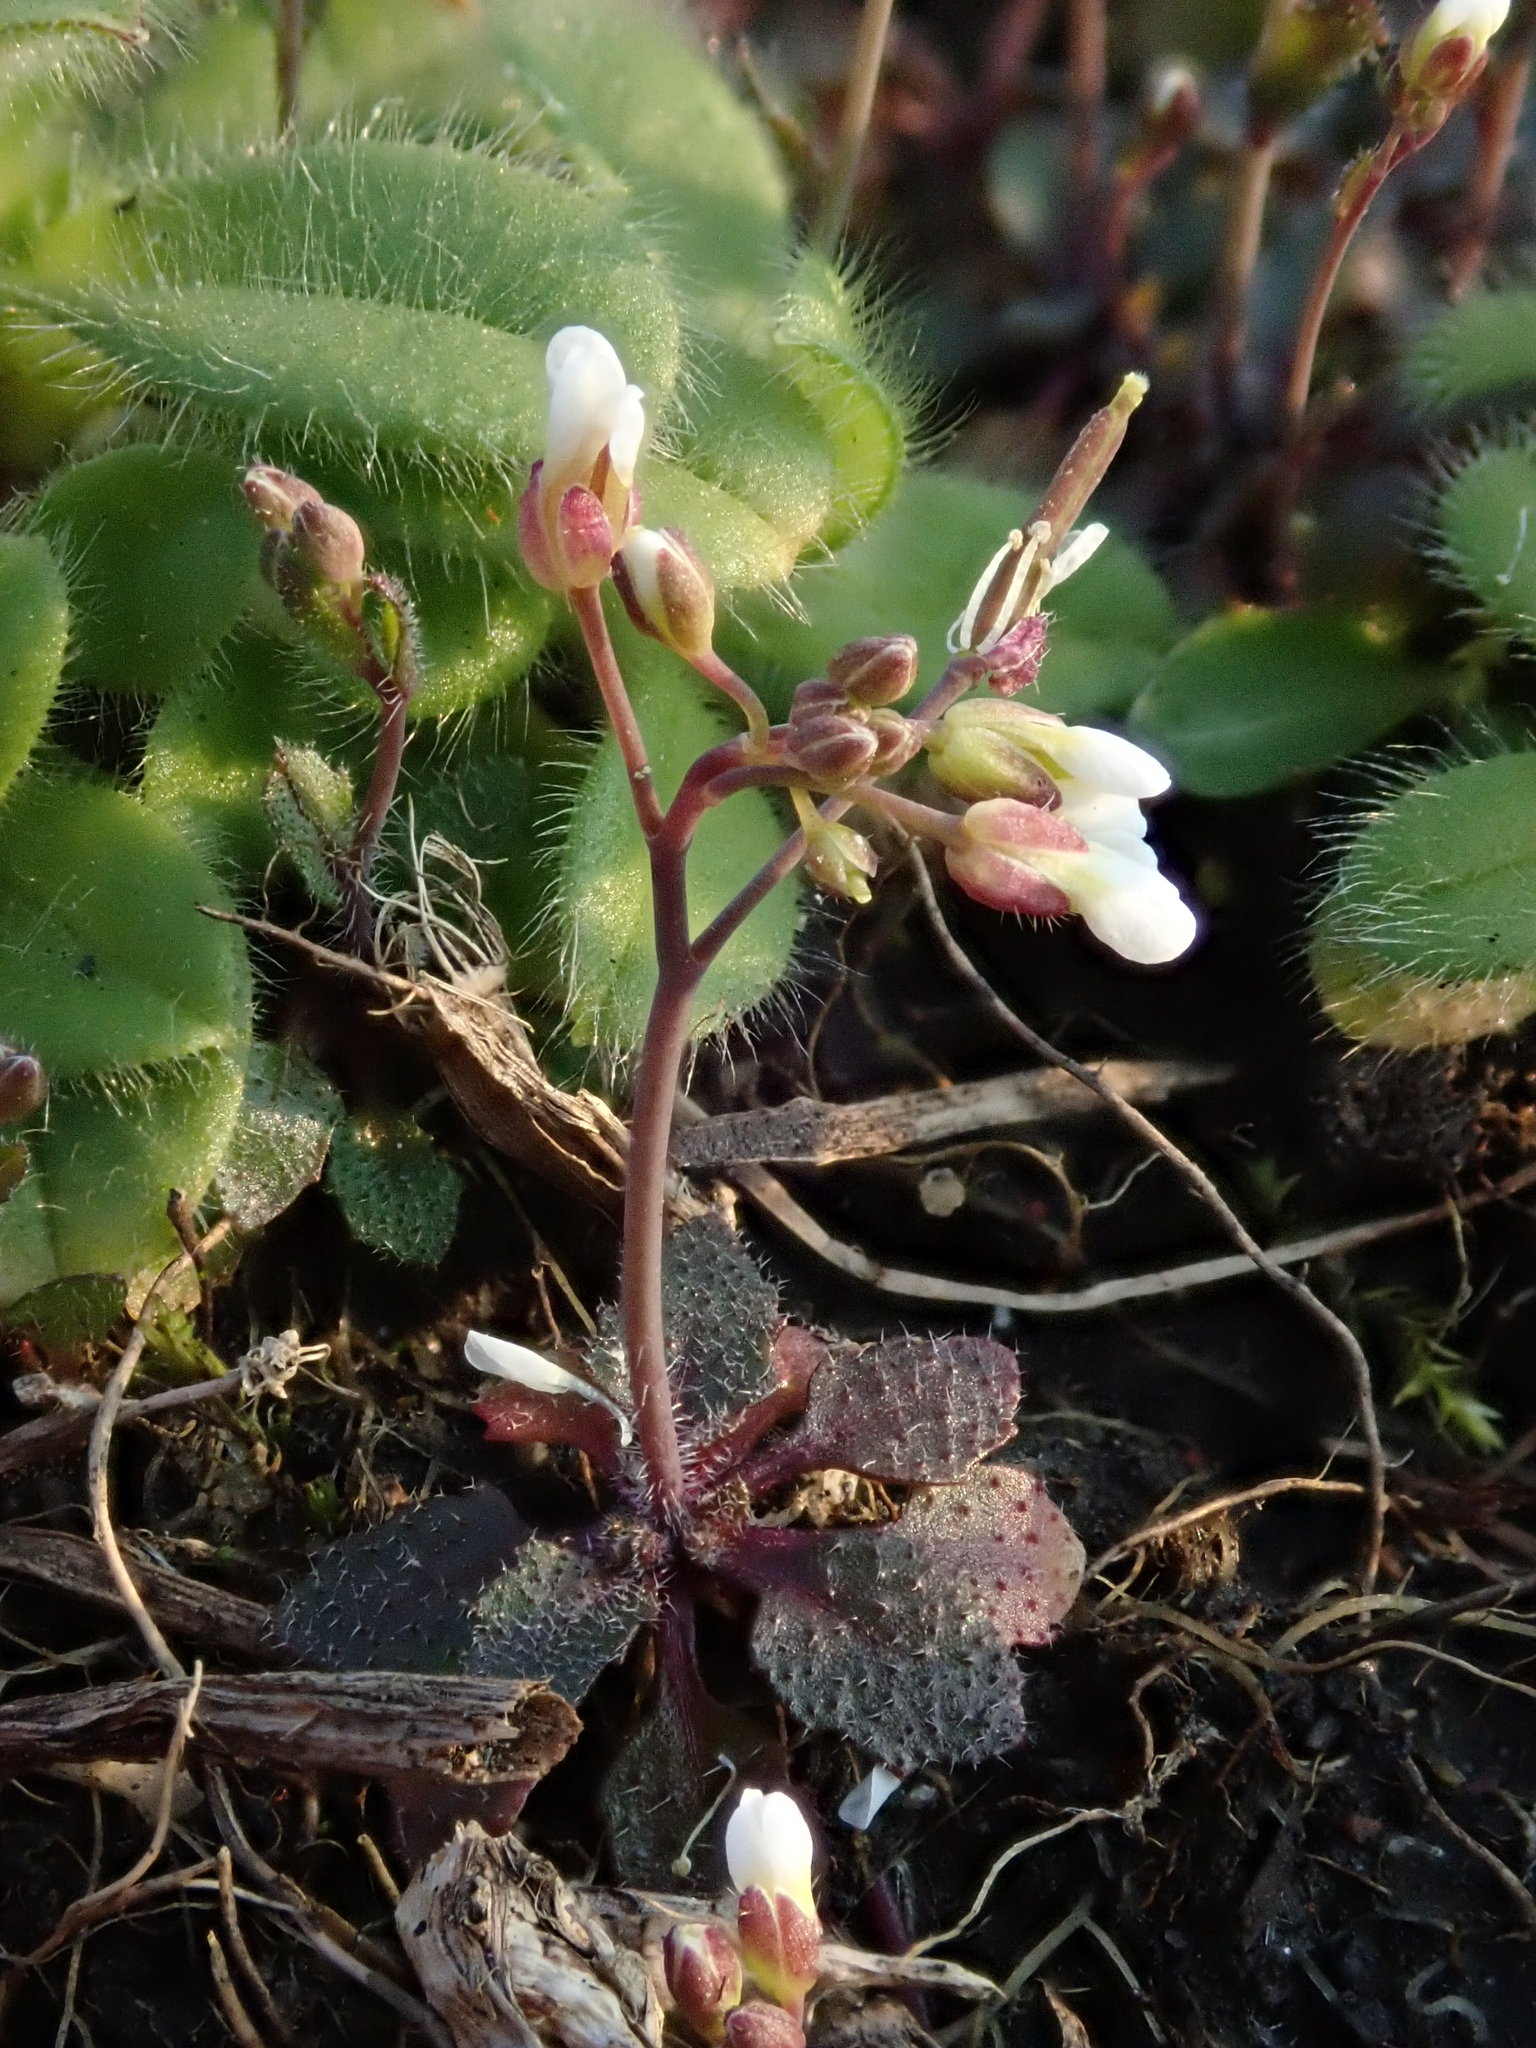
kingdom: Plantae
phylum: Tracheophyta
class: Magnoliopsida
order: Brassicales
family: Brassicaceae
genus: Arabidopsis
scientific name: Arabidopsis thaliana
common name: Thale cress
